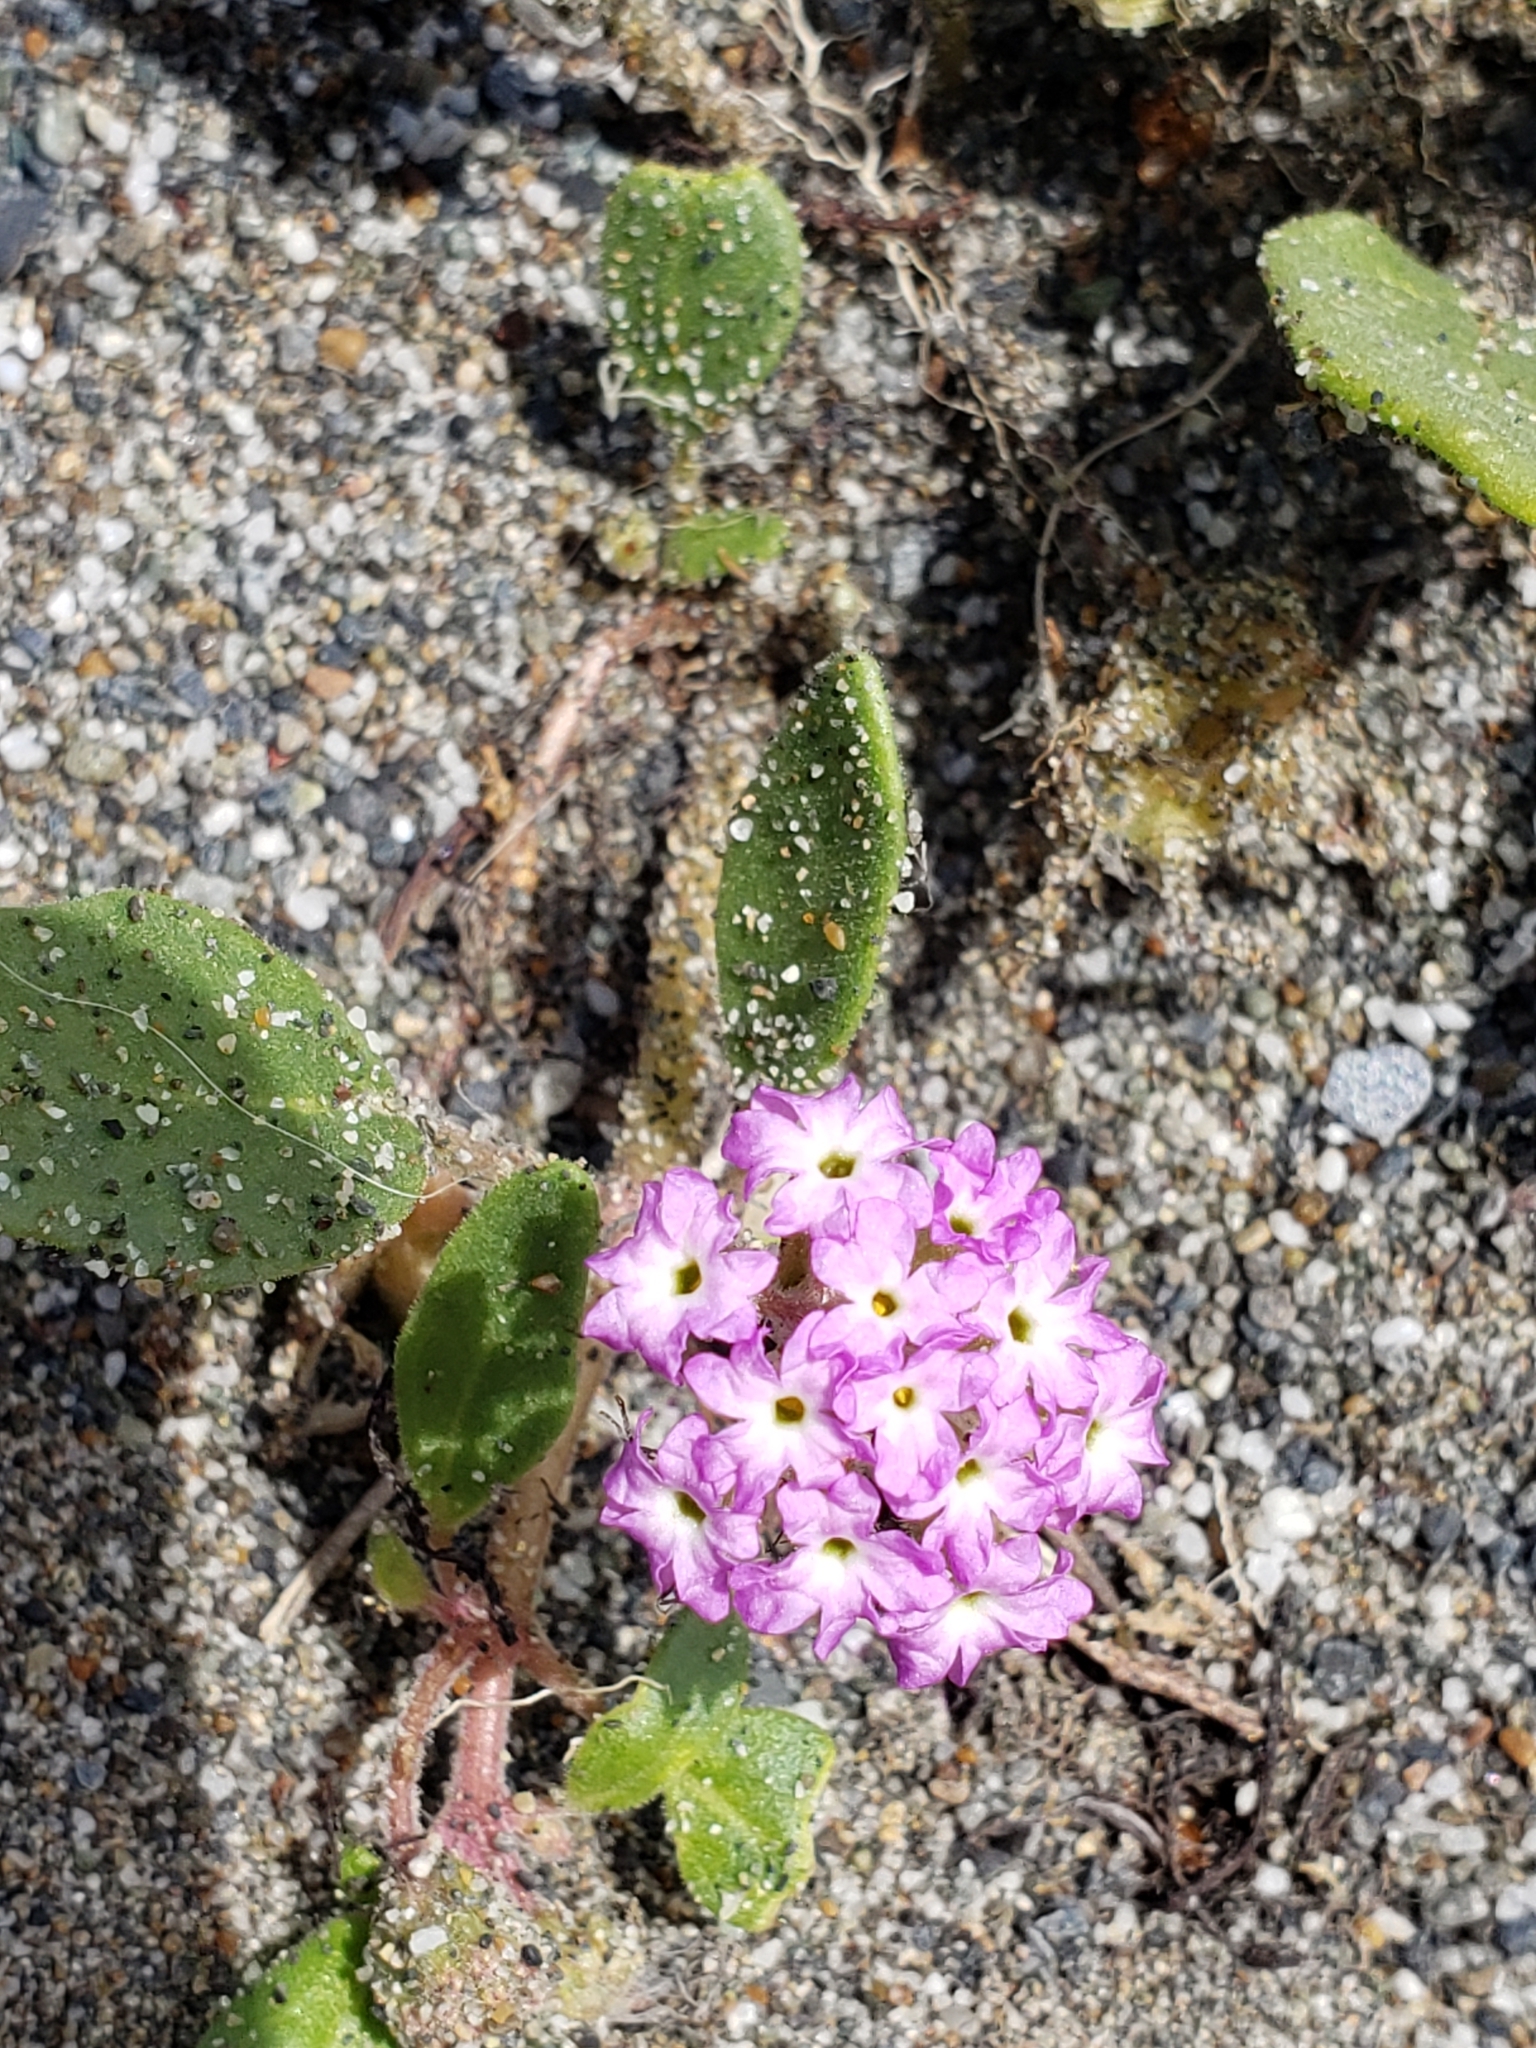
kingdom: Plantae
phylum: Tracheophyta
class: Magnoliopsida
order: Caryophyllales
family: Nyctaginaceae
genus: Abronia
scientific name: Abronia umbellata
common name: Sand-verbena
